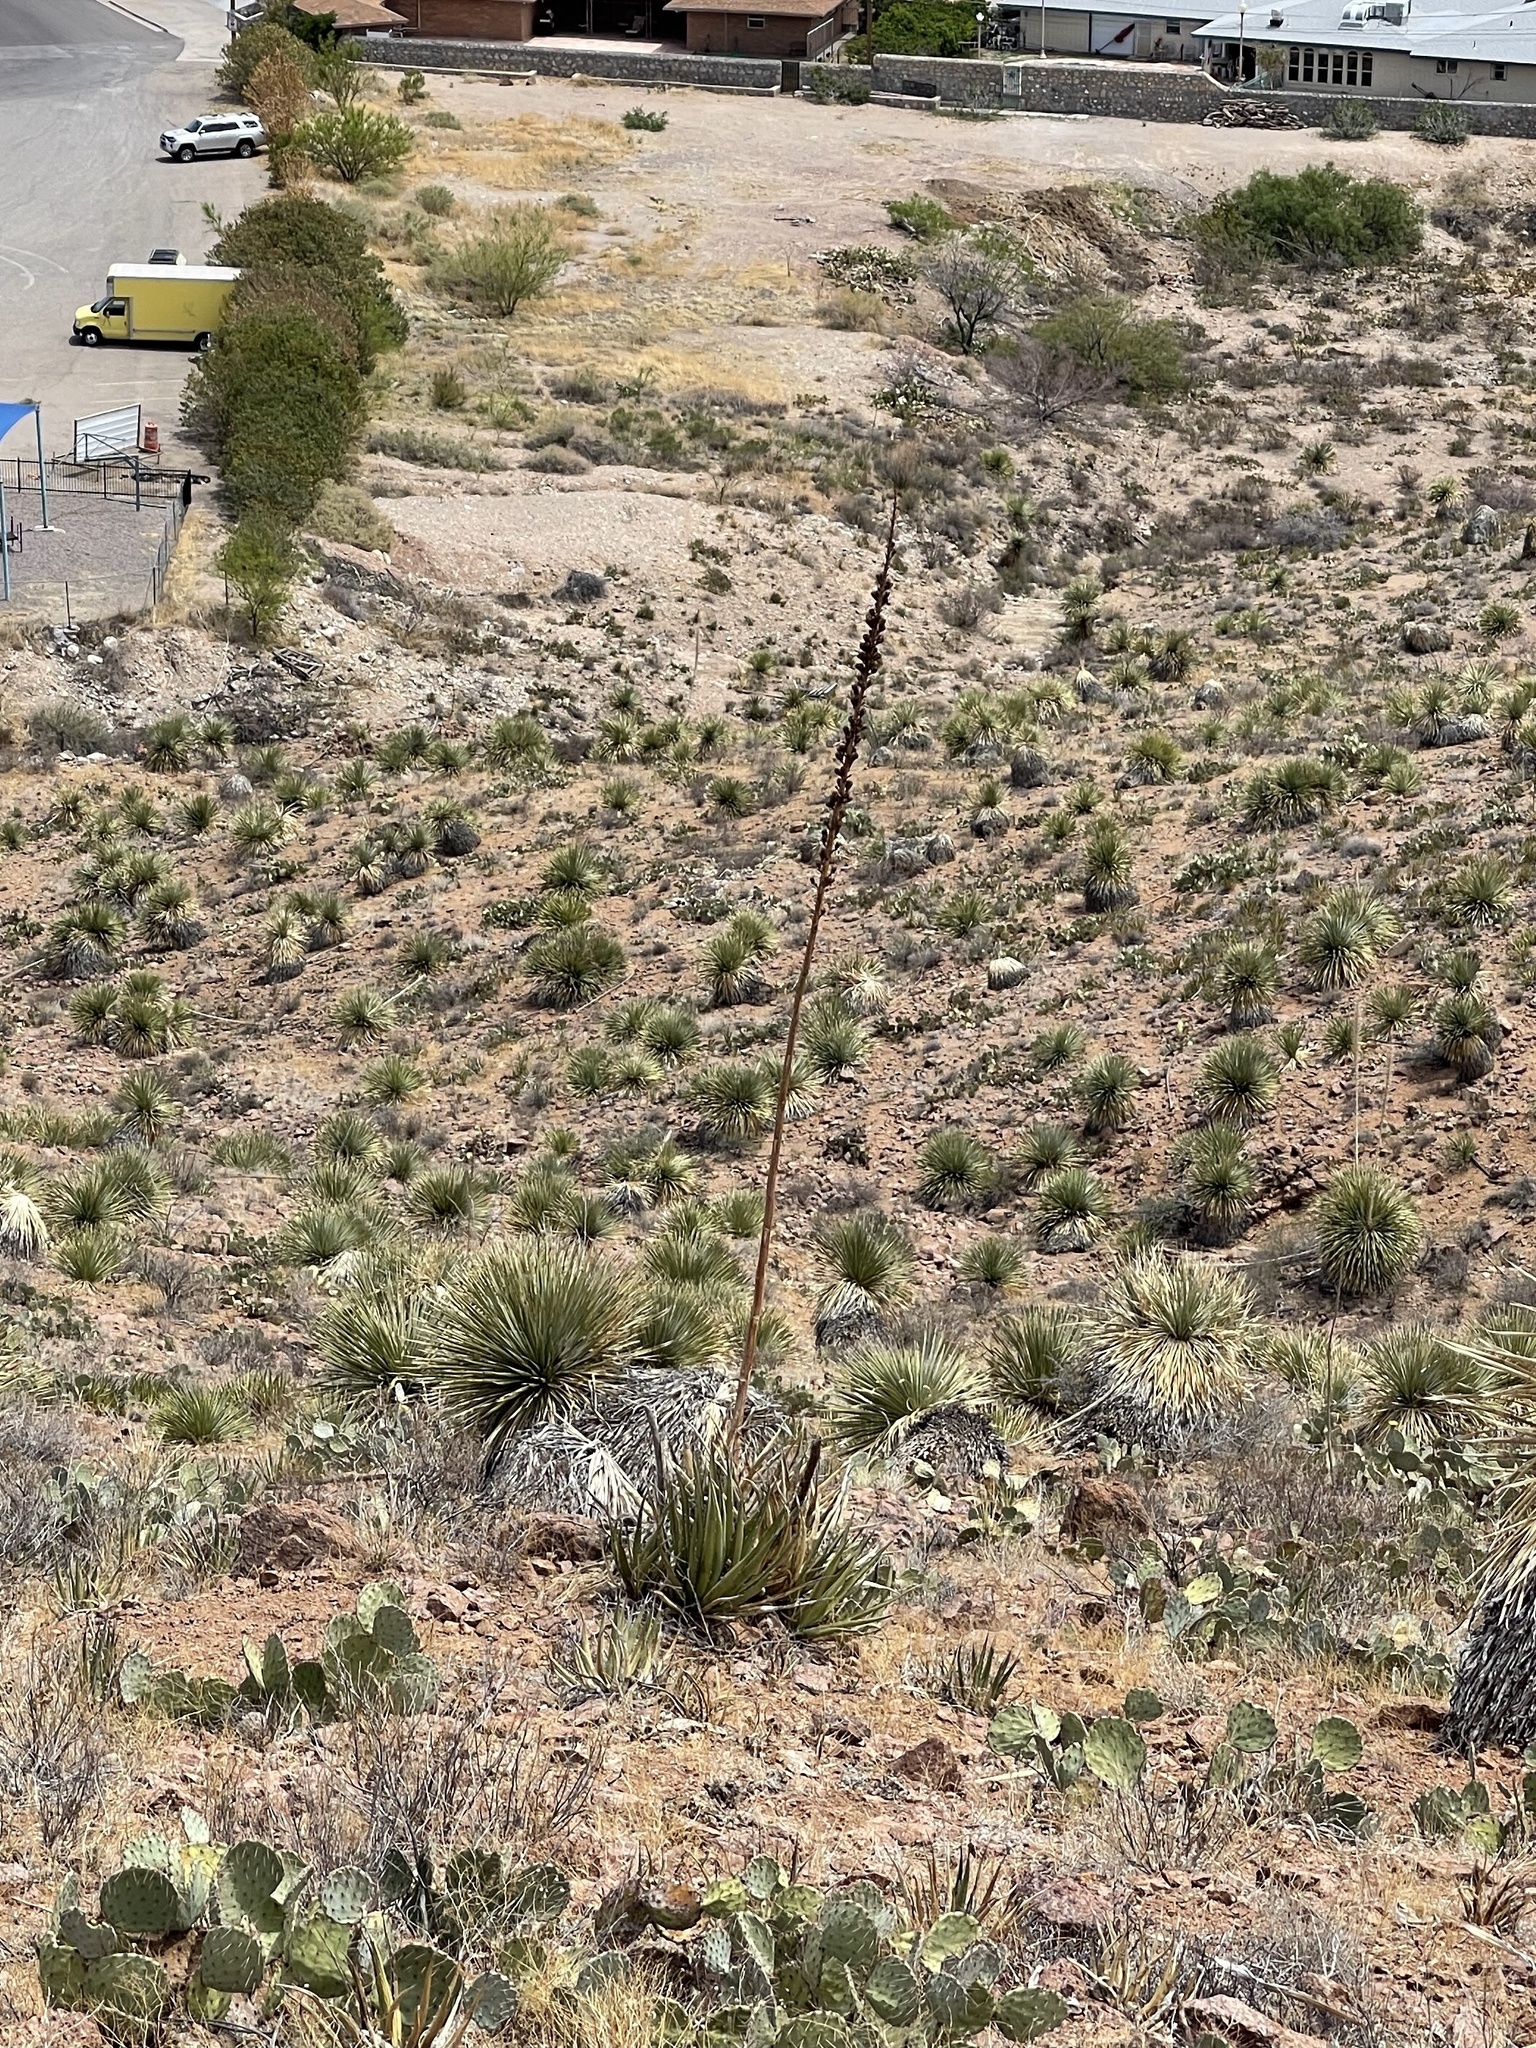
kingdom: Plantae
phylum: Tracheophyta
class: Liliopsida
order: Asparagales
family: Asparagaceae
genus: Agave
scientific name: Agave lechuguilla
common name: Lecheguilla agave
